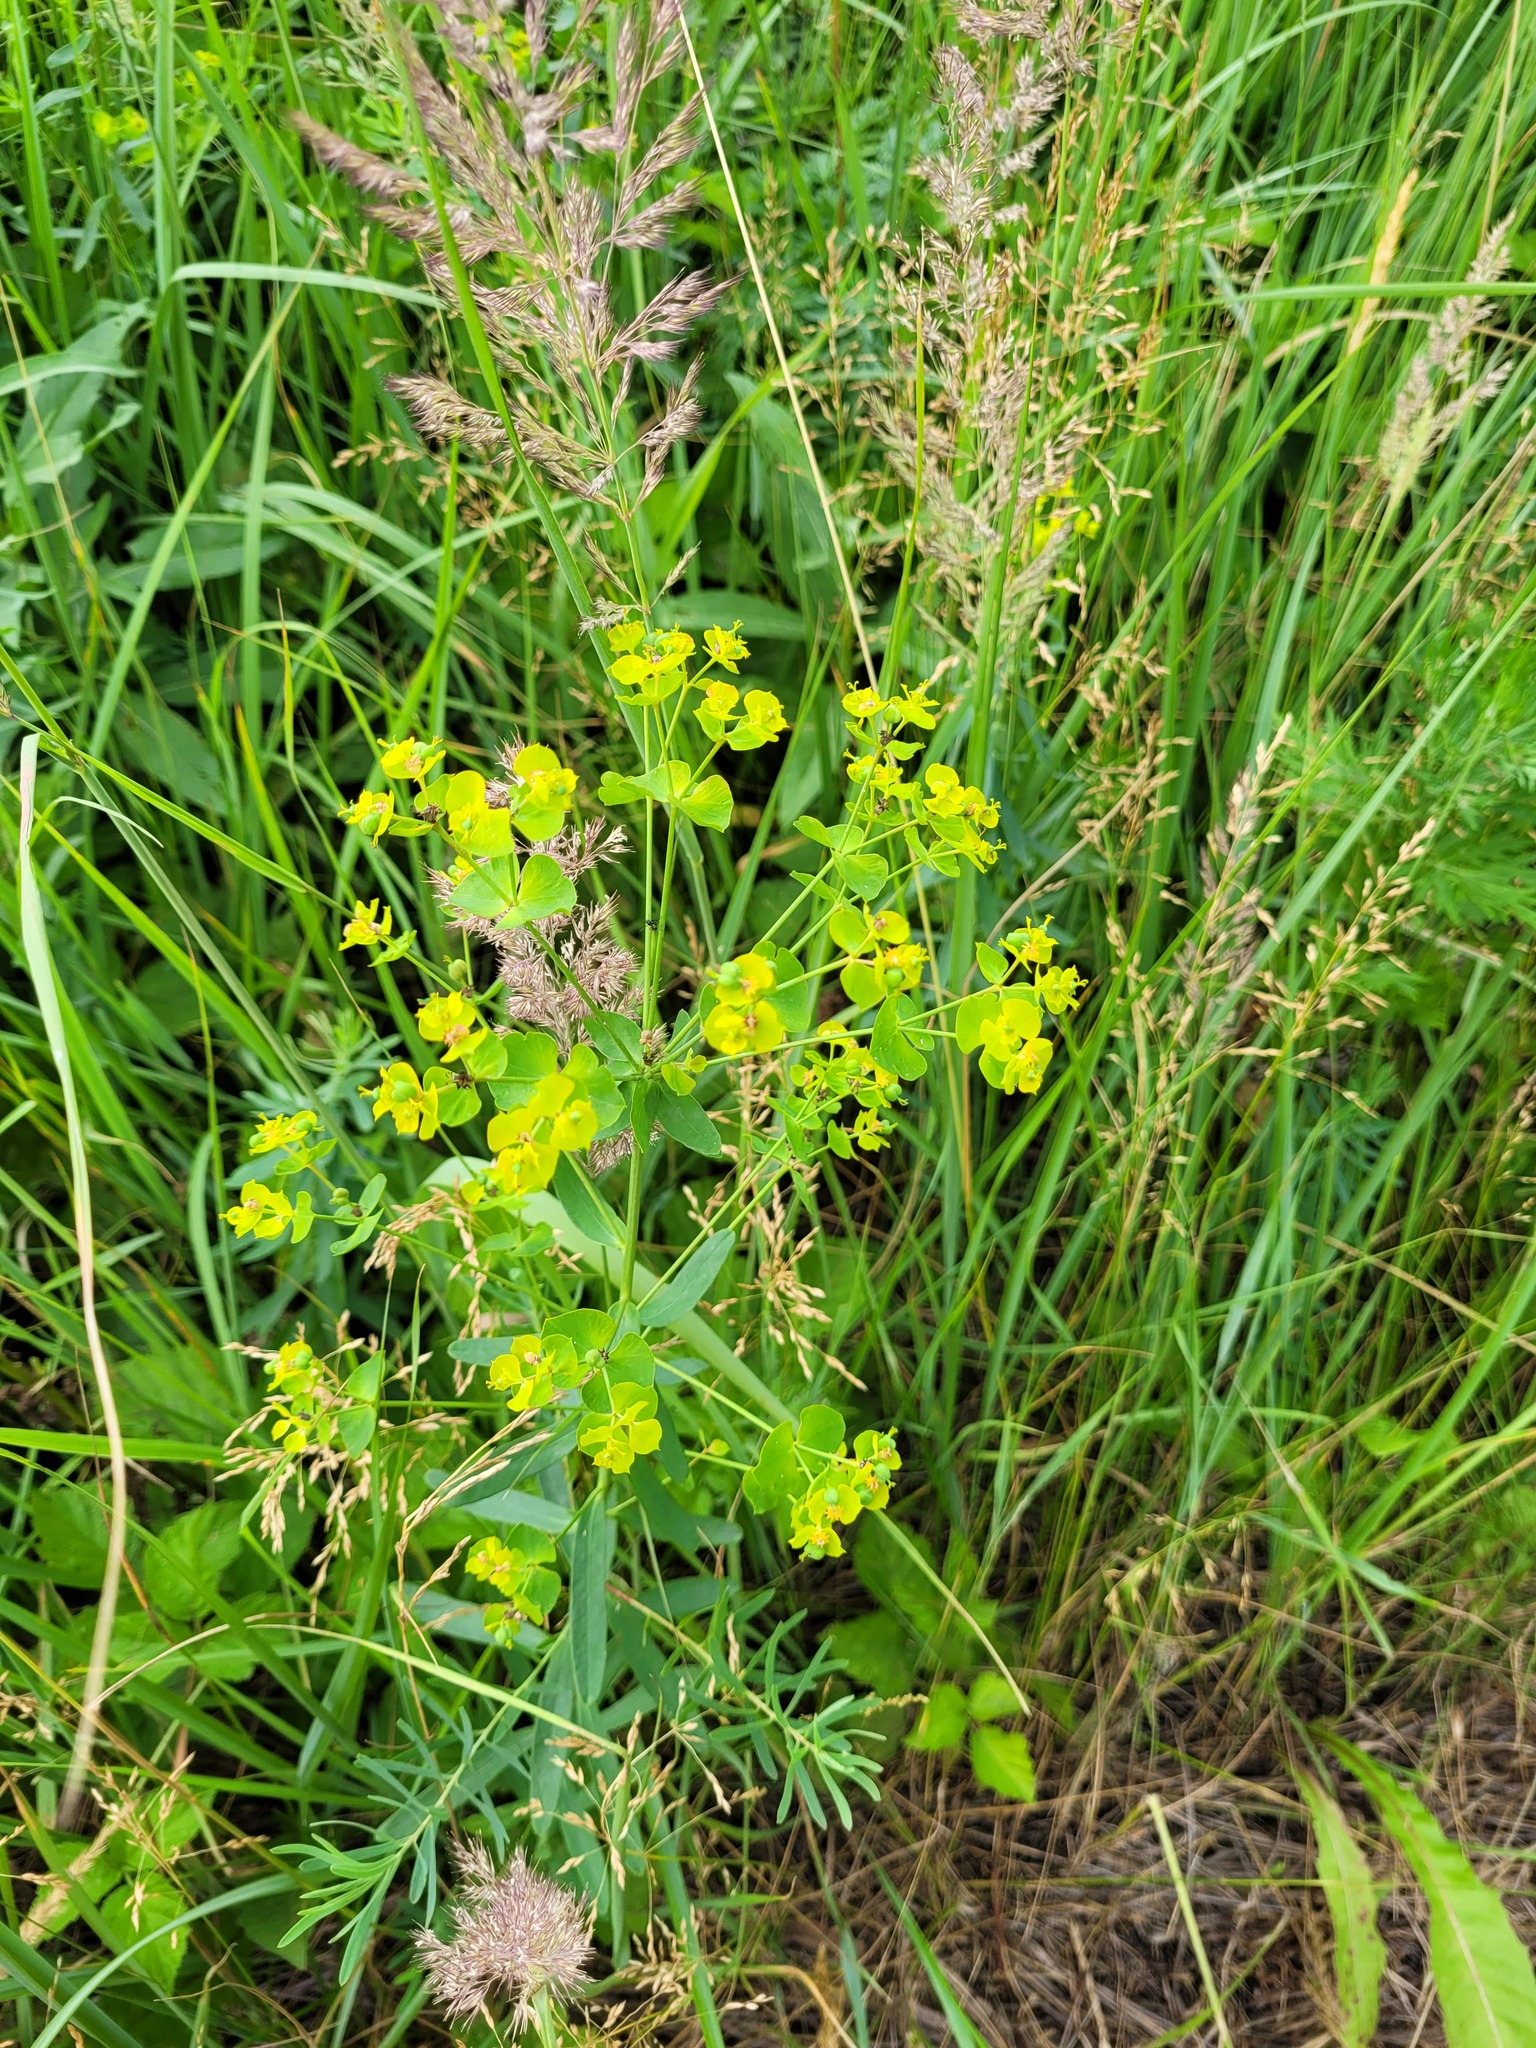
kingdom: Plantae
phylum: Tracheophyta
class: Magnoliopsida
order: Malpighiales
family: Euphorbiaceae
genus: Euphorbia
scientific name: Euphorbia virgata
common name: Leafy spurge
